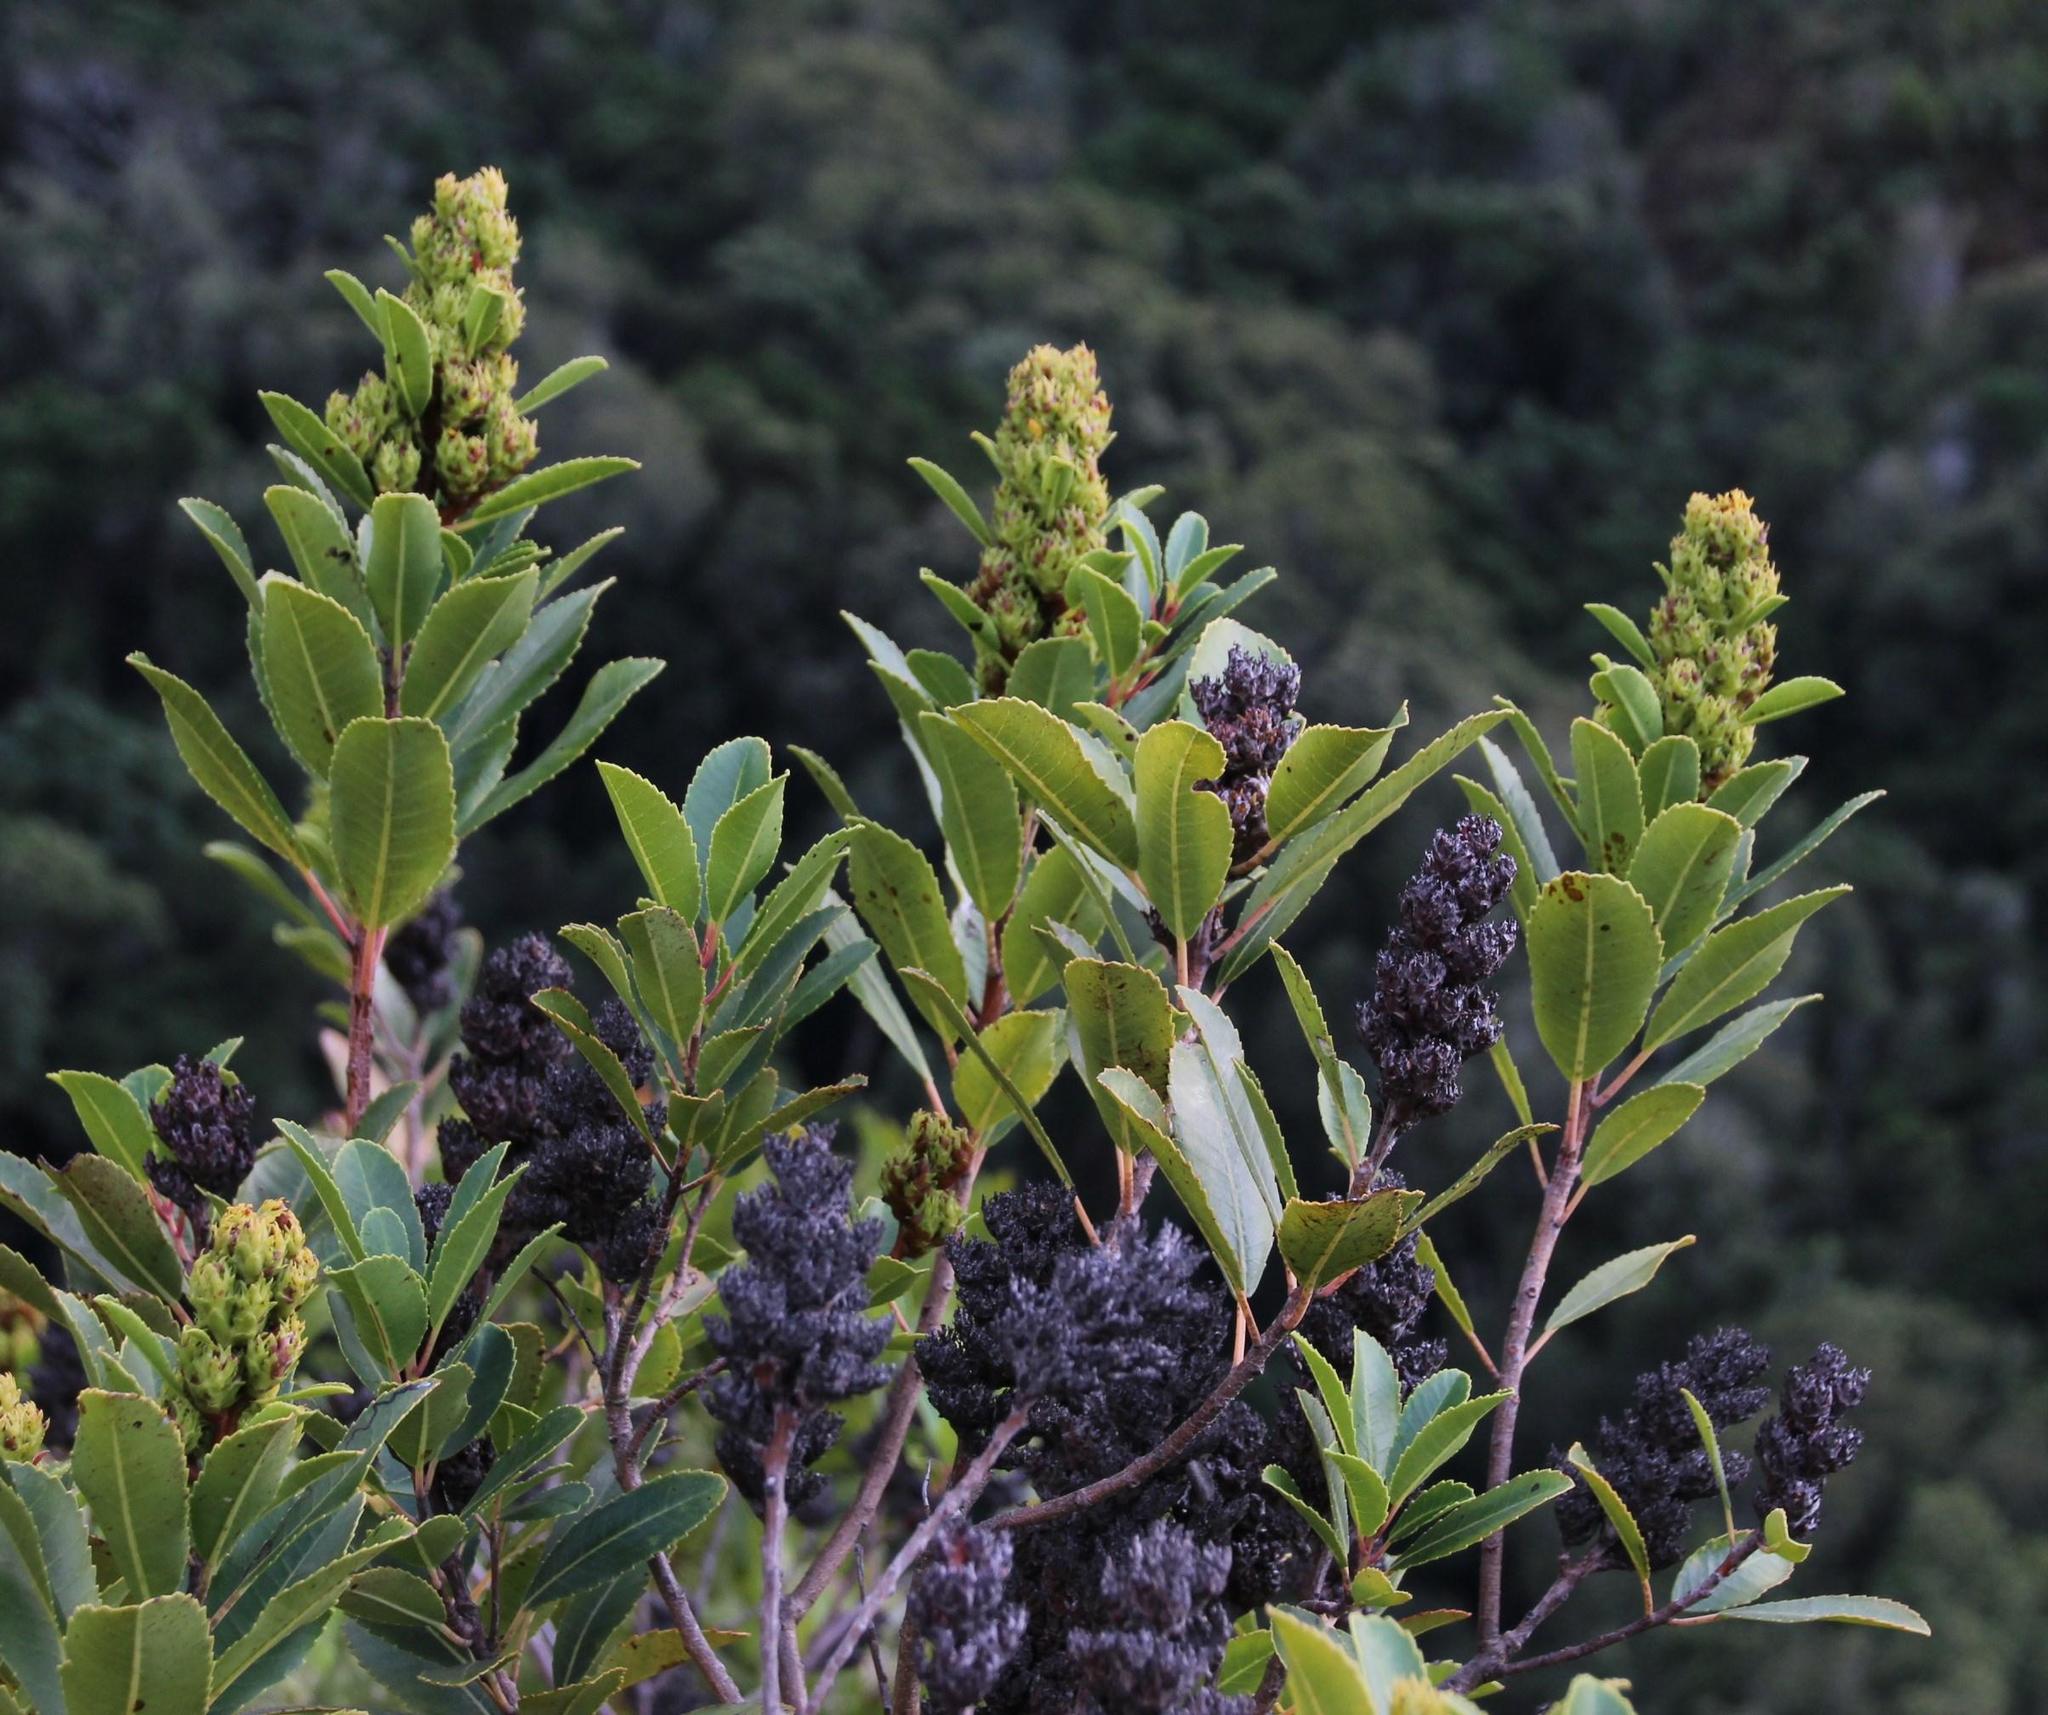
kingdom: Plantae
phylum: Tracheophyta
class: Magnoliopsida
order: Sapindales
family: Anacardiaceae
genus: Laurophyllus
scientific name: Laurophyllus capensis
